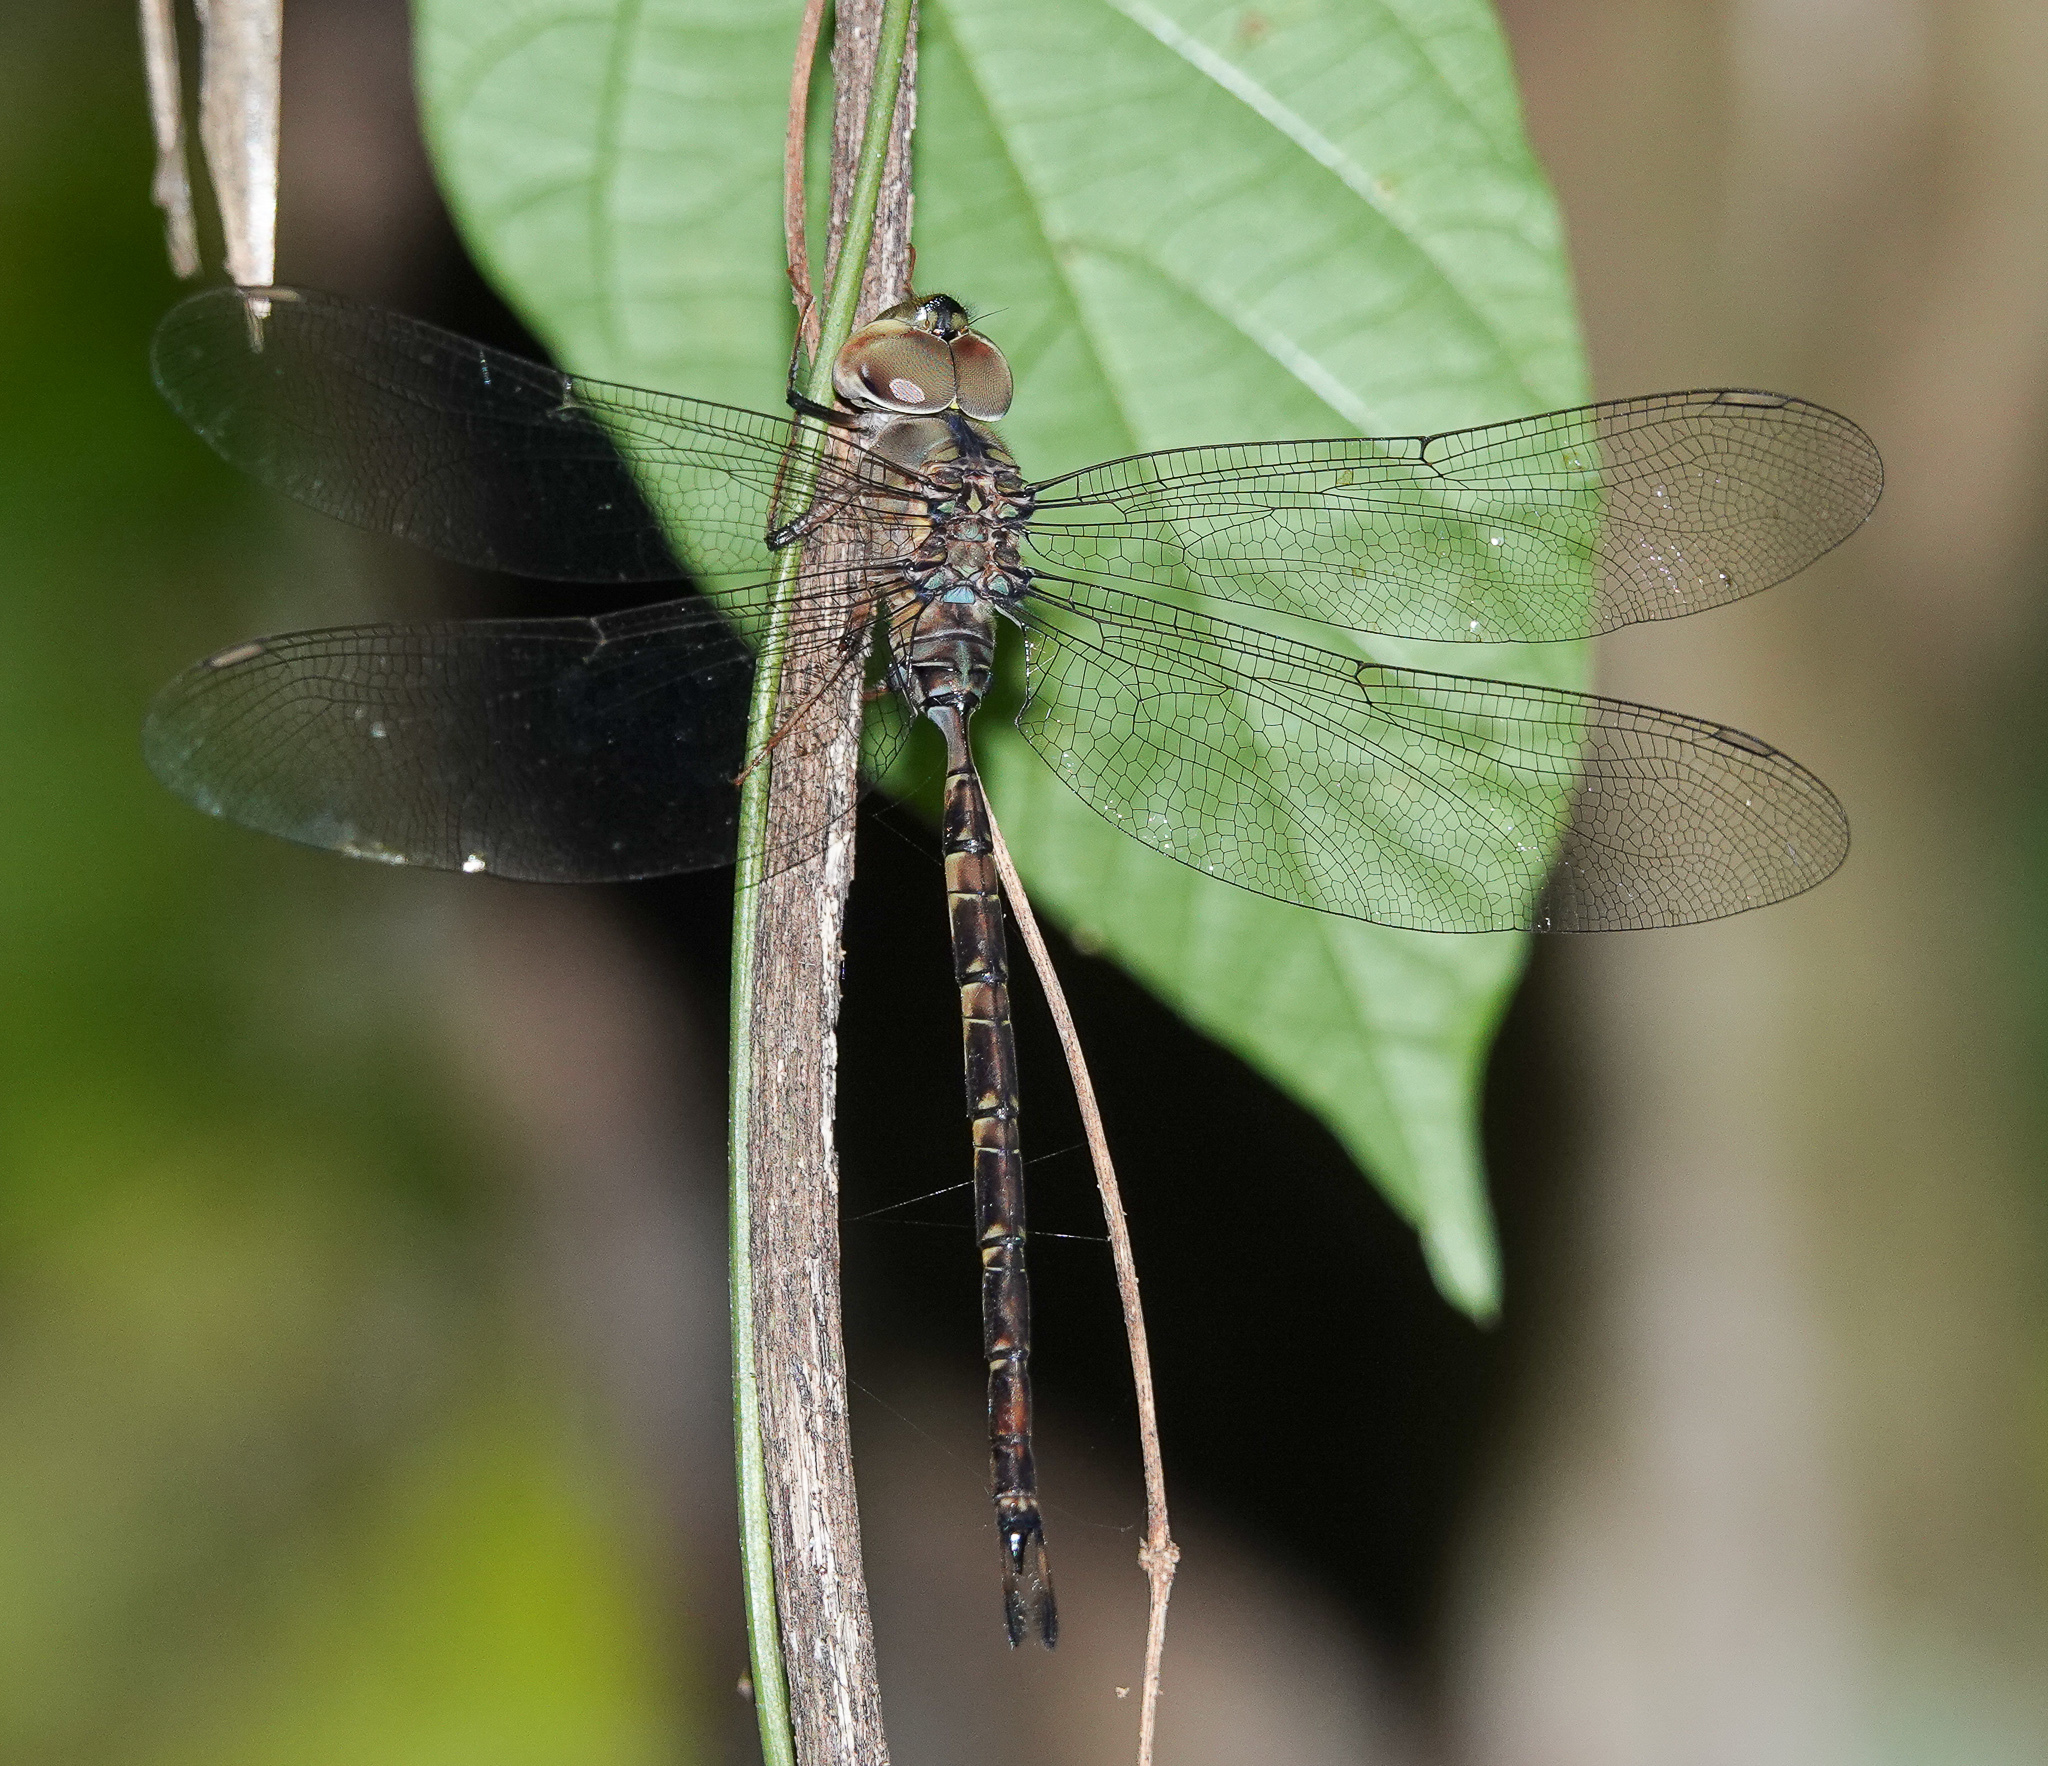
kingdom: Animalia
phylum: Arthropoda
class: Insecta
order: Odonata
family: Aeshnidae
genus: Gynacantha
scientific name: Gynacantha subinterrupta
